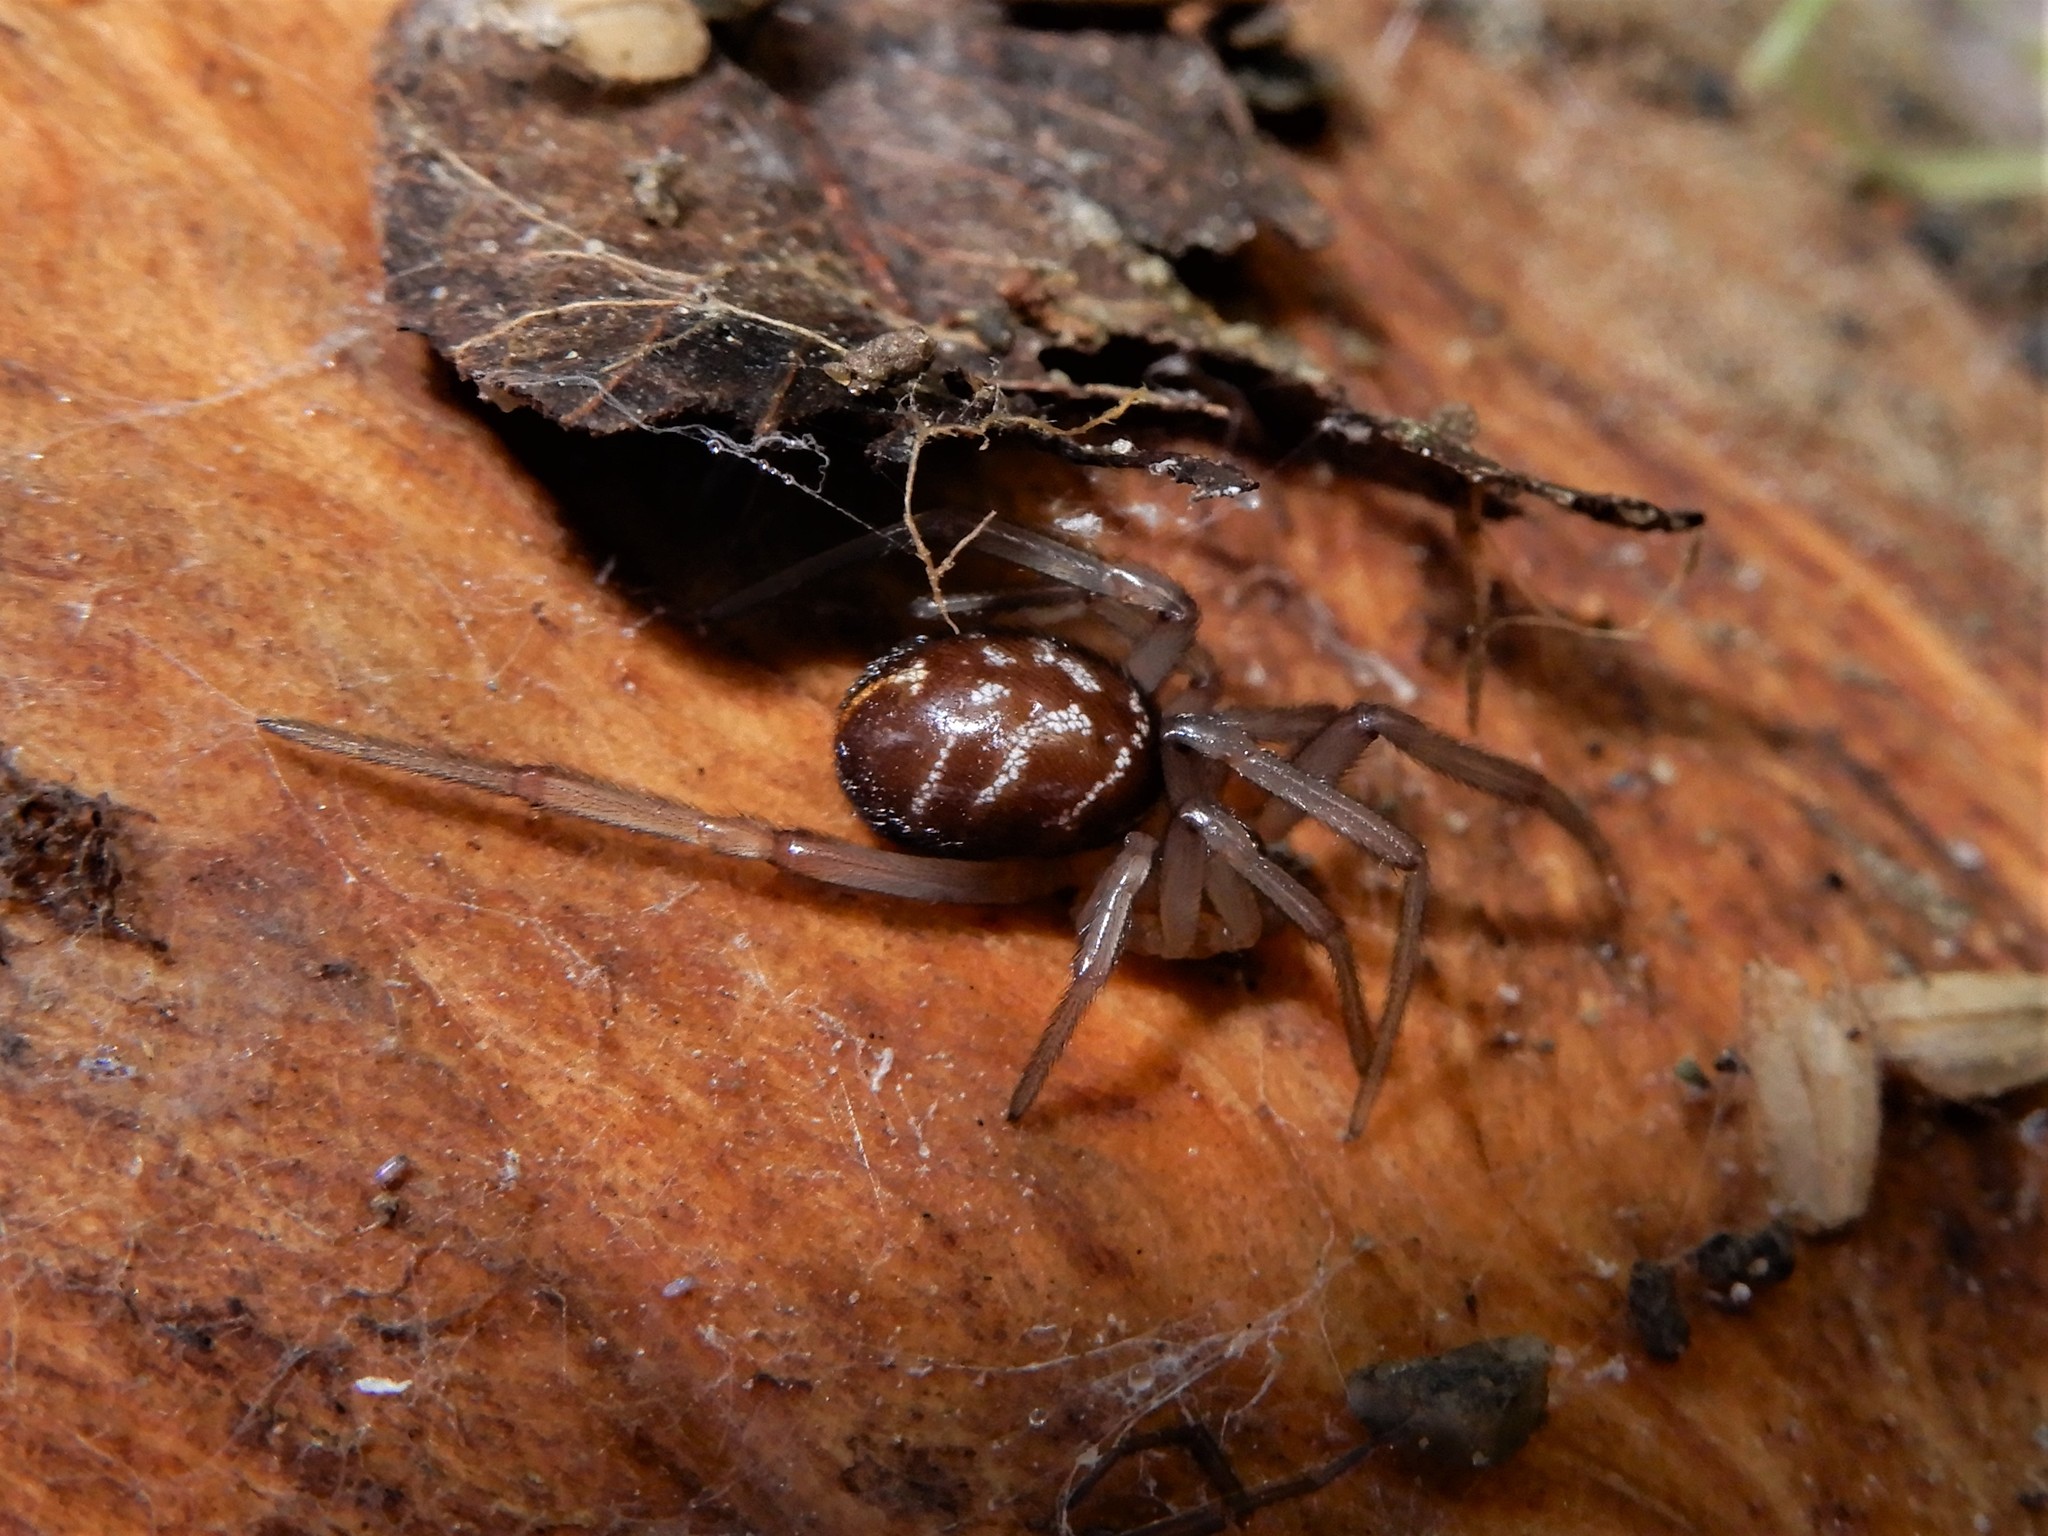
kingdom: Animalia
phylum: Arthropoda
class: Arachnida
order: Araneae
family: Theridiidae
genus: Steatoda
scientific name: Steatoda grossa
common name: False black widow
